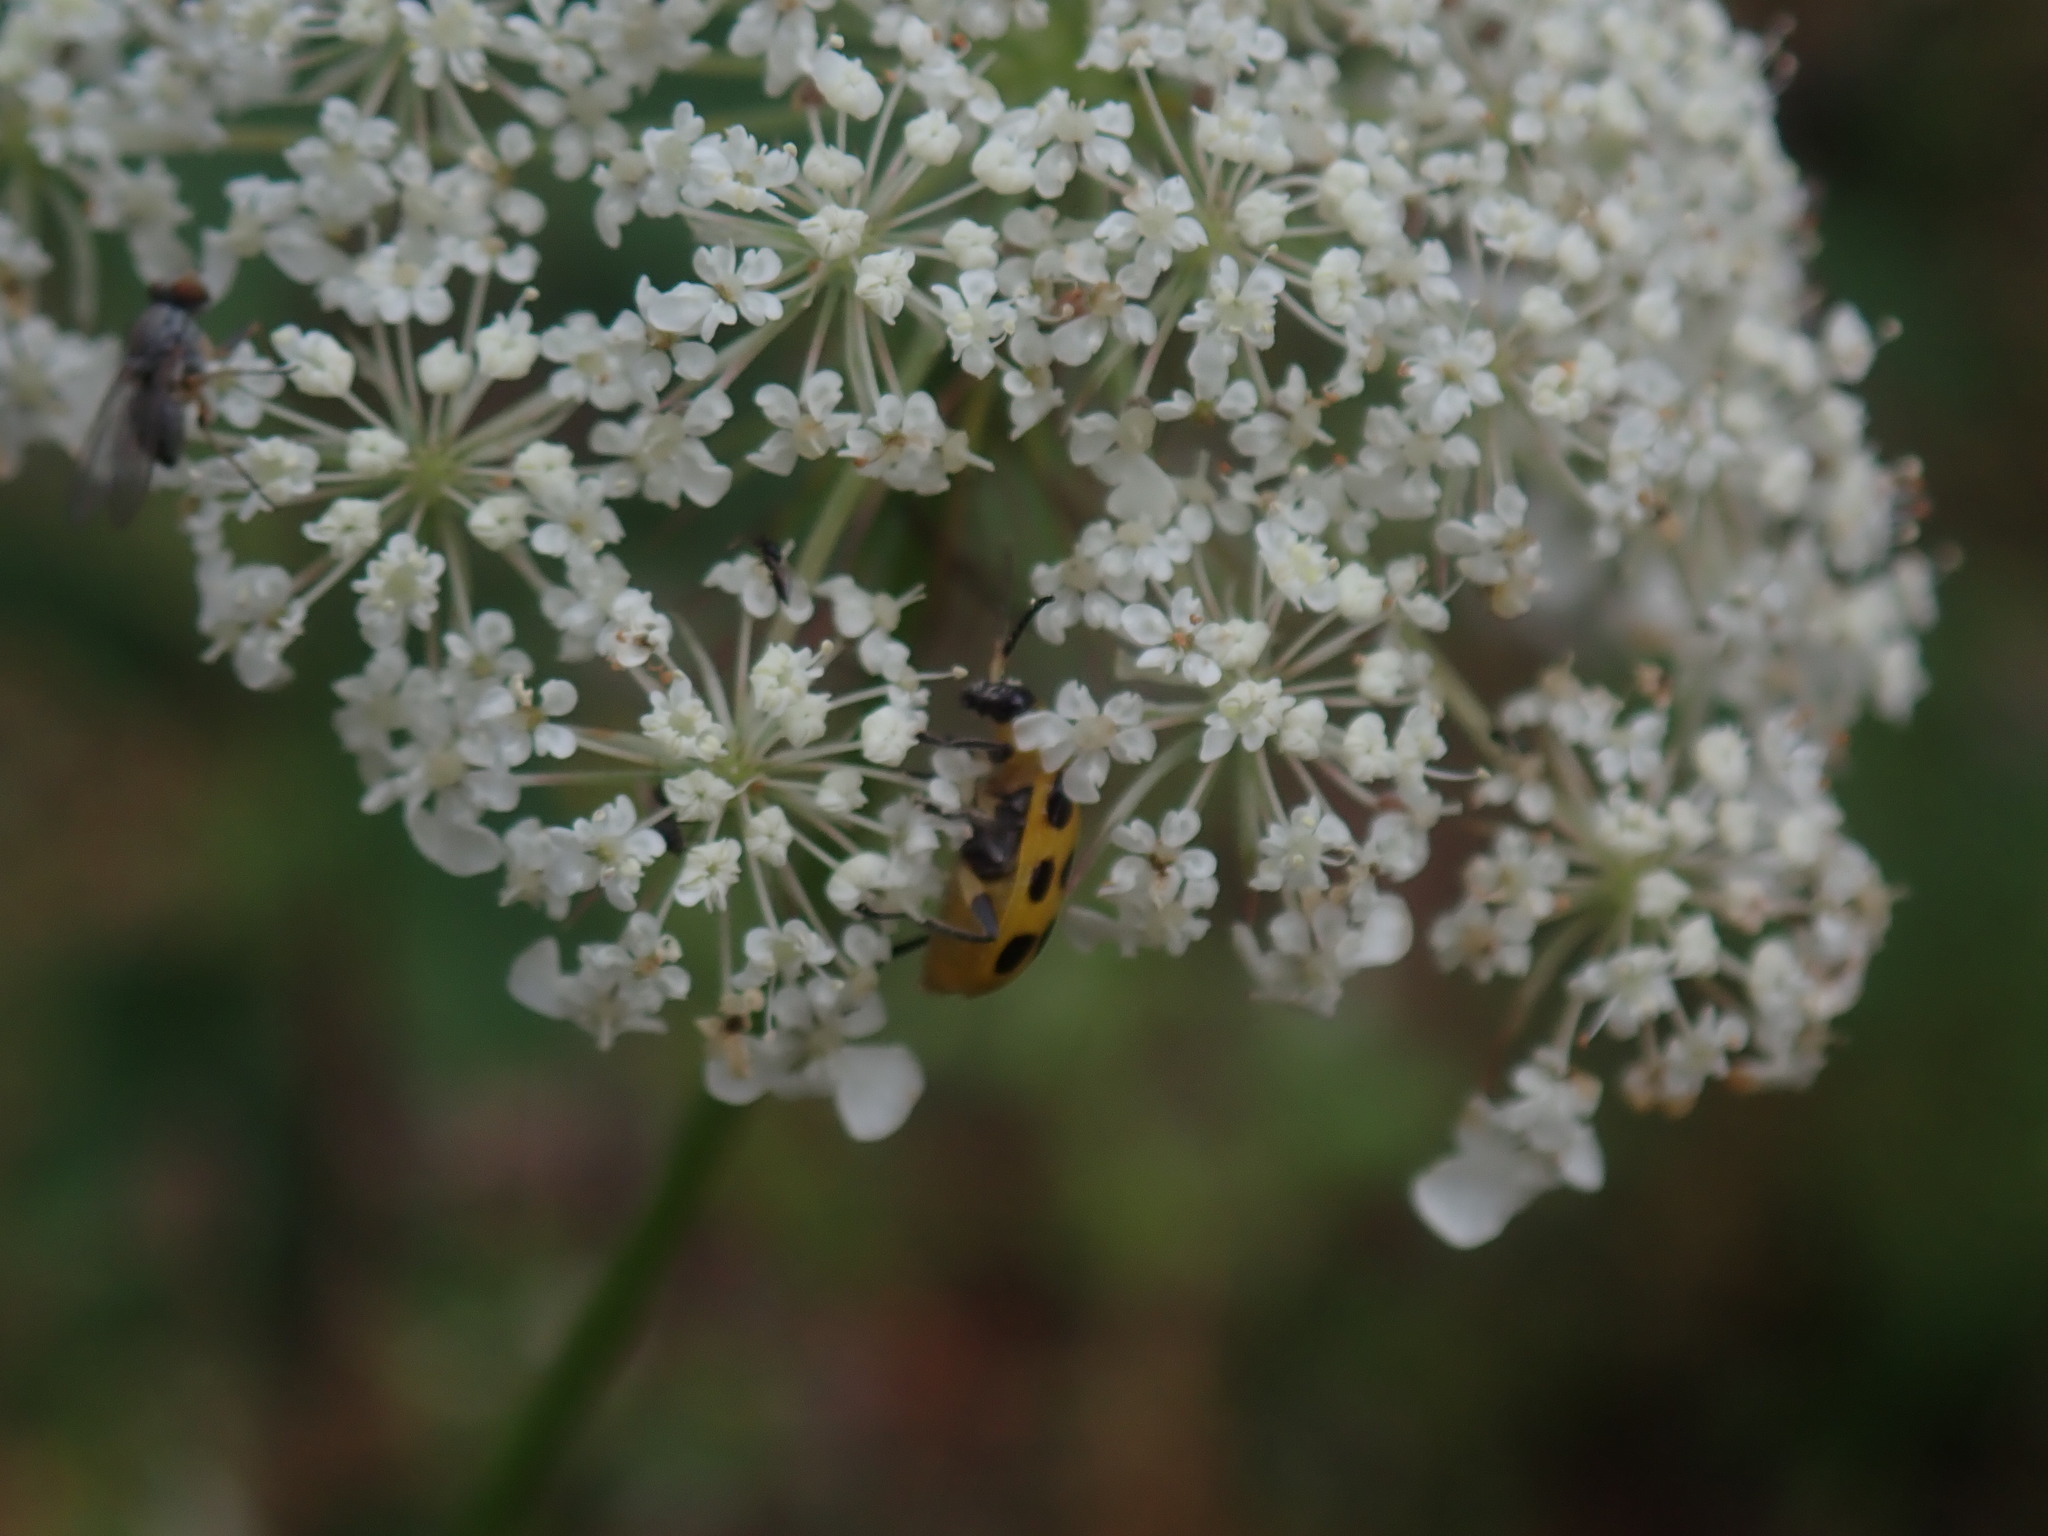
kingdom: Animalia
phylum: Arthropoda
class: Insecta
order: Coleoptera
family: Chrysomelidae
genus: Diabrotica
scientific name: Diabrotica undecimpunctata
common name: Spotted cucumber beetle
